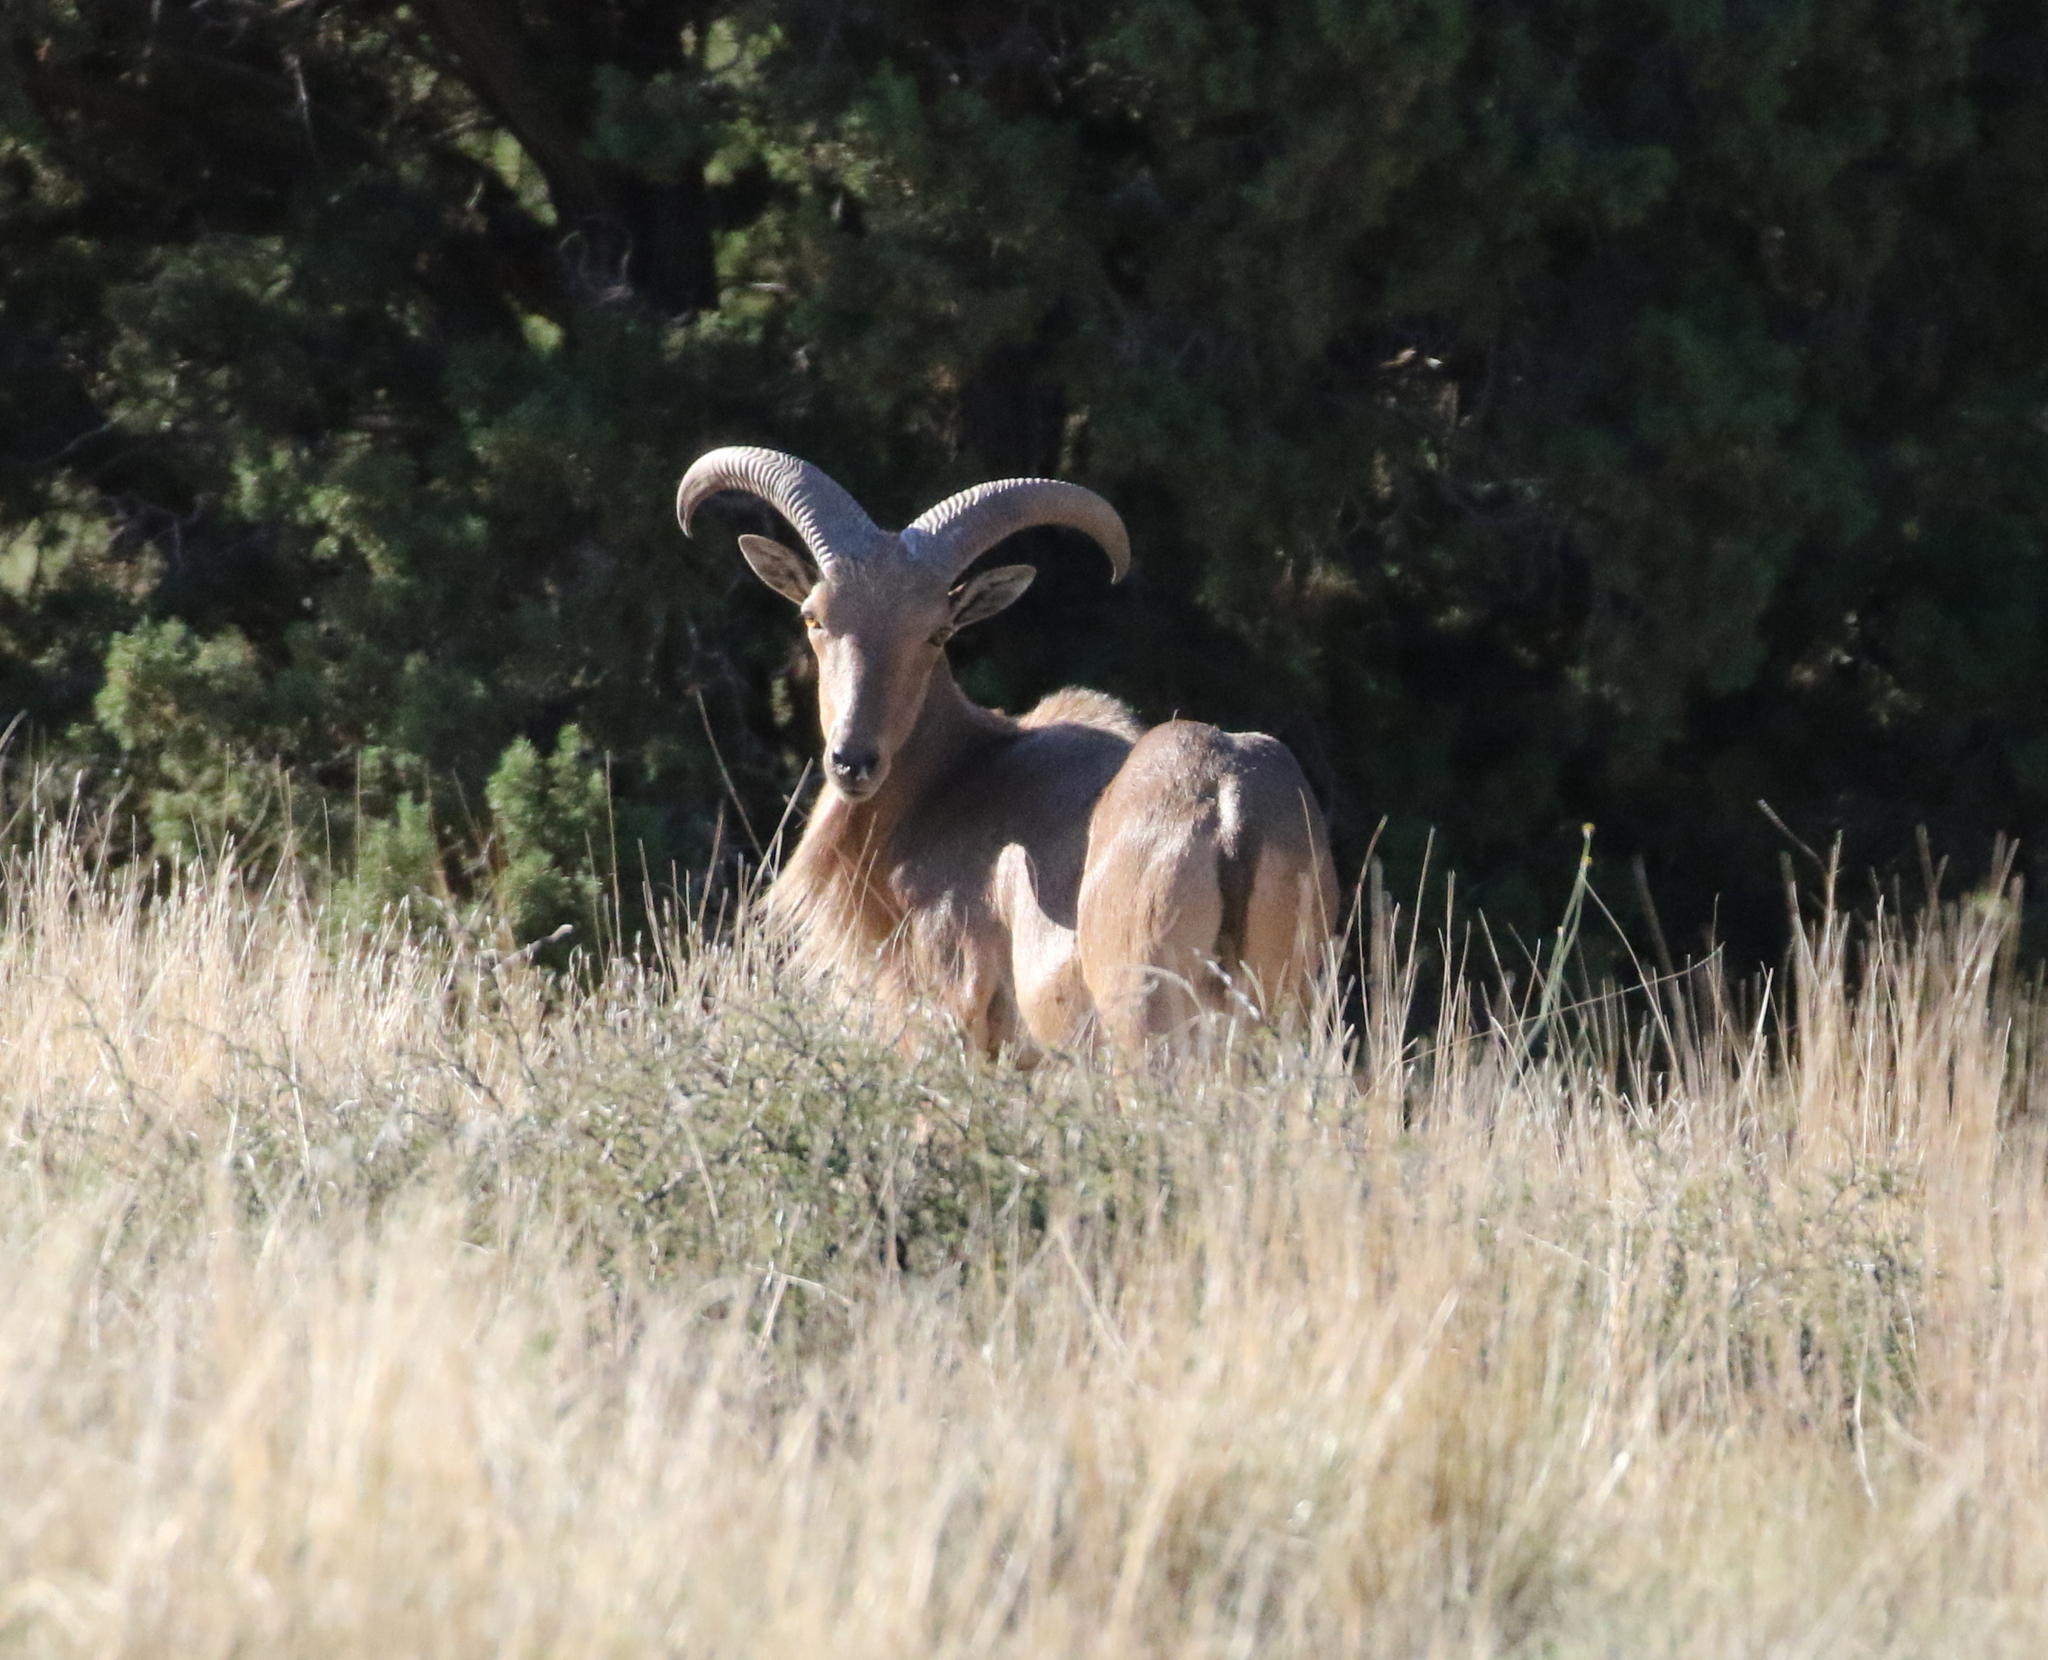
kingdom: Animalia
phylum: Chordata
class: Mammalia
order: Artiodactyla
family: Bovidae
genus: Ammotragus
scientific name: Ammotragus lervia
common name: Barbary sheep
